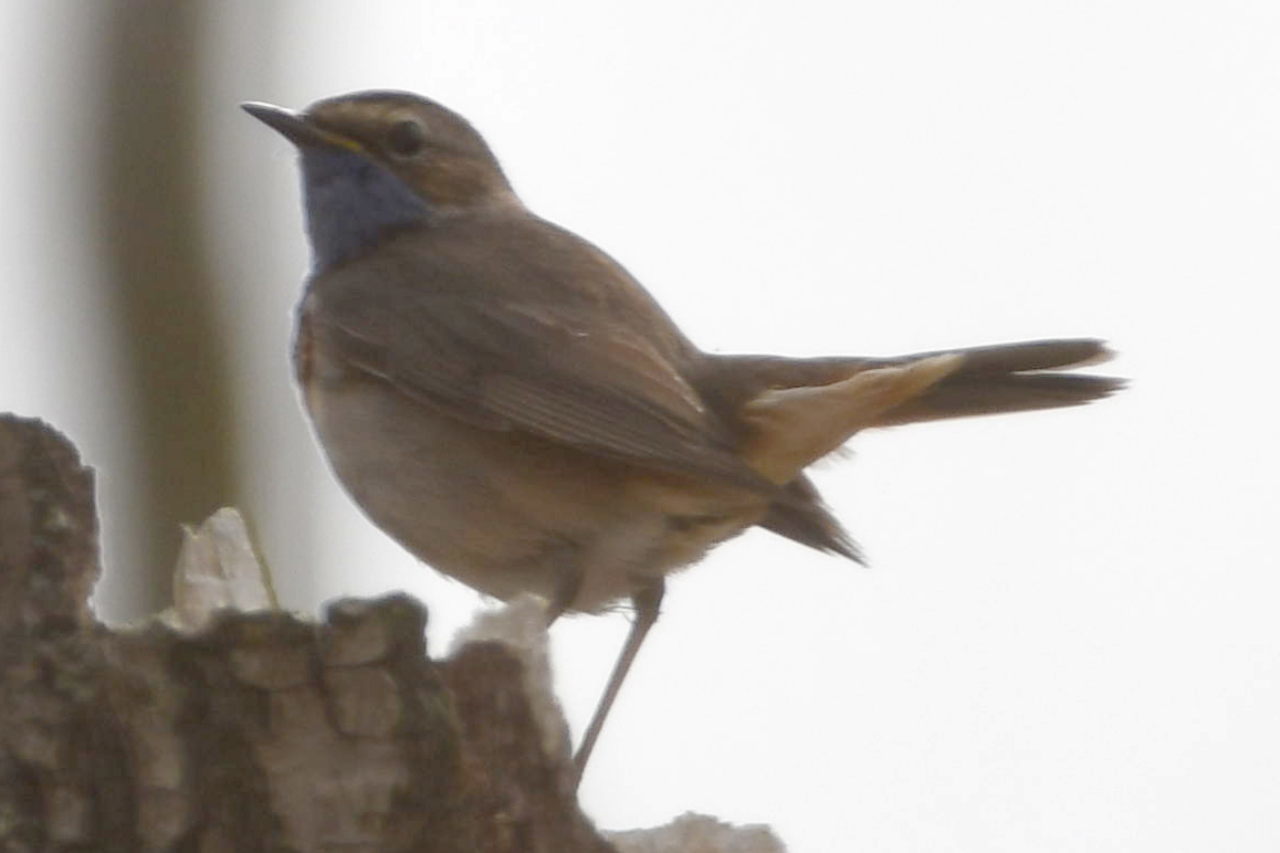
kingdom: Animalia
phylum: Chordata
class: Aves
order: Passeriformes
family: Muscicapidae
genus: Luscinia
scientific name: Luscinia svecica
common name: Bluethroat
